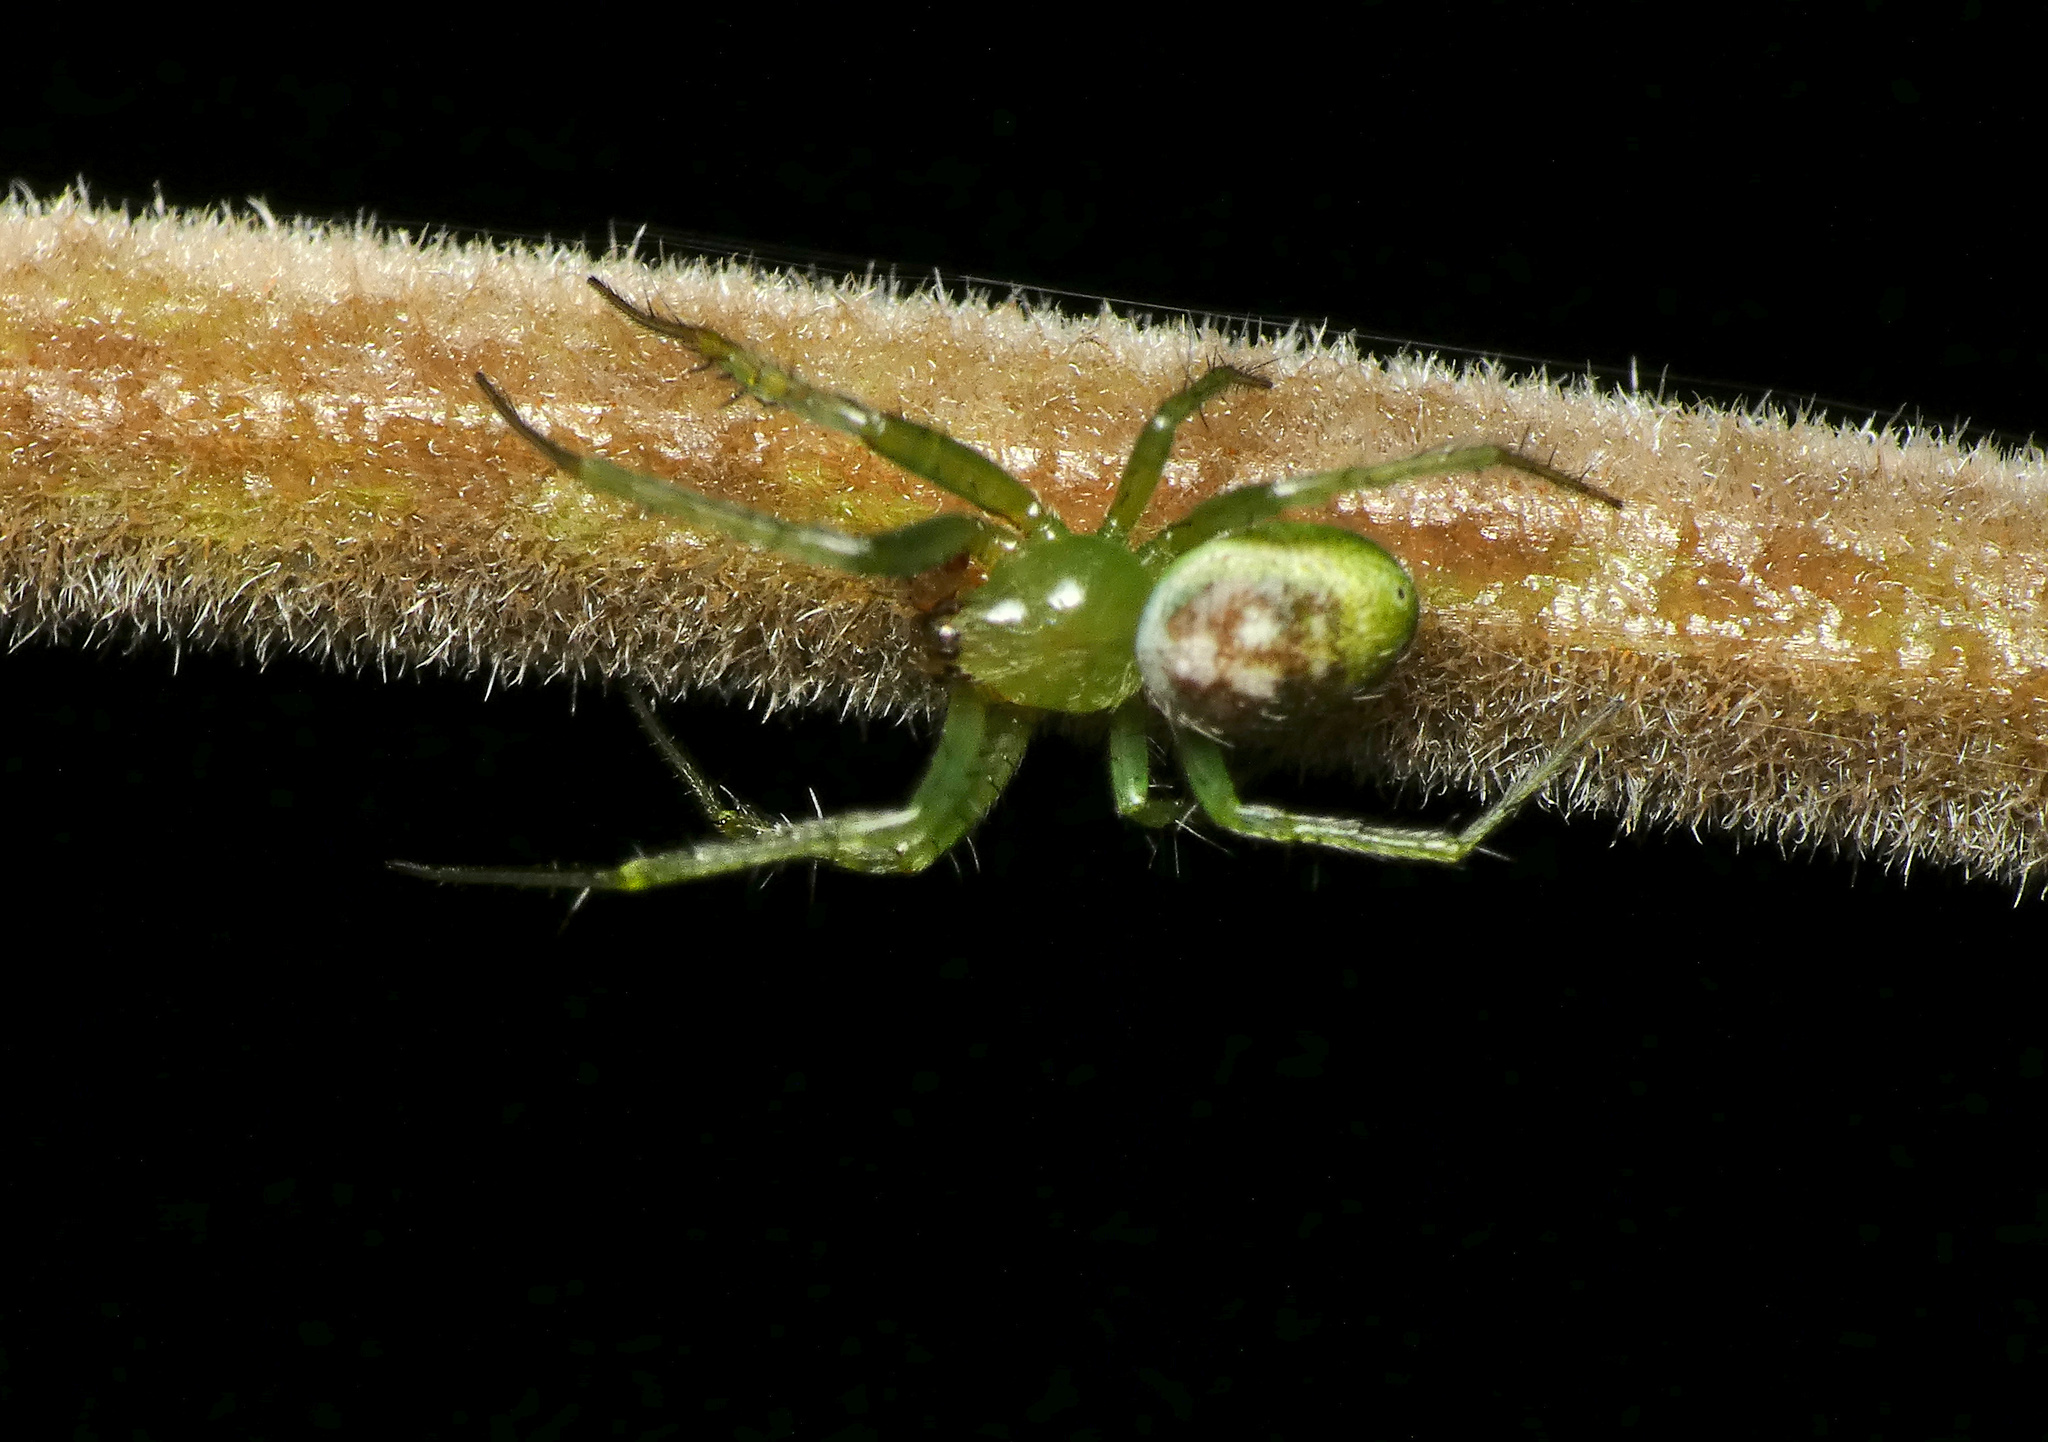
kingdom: Animalia
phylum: Arthropoda
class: Arachnida
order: Araneae
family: Araneidae
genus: Prasonica
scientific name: Prasonica nigrotaeniata
